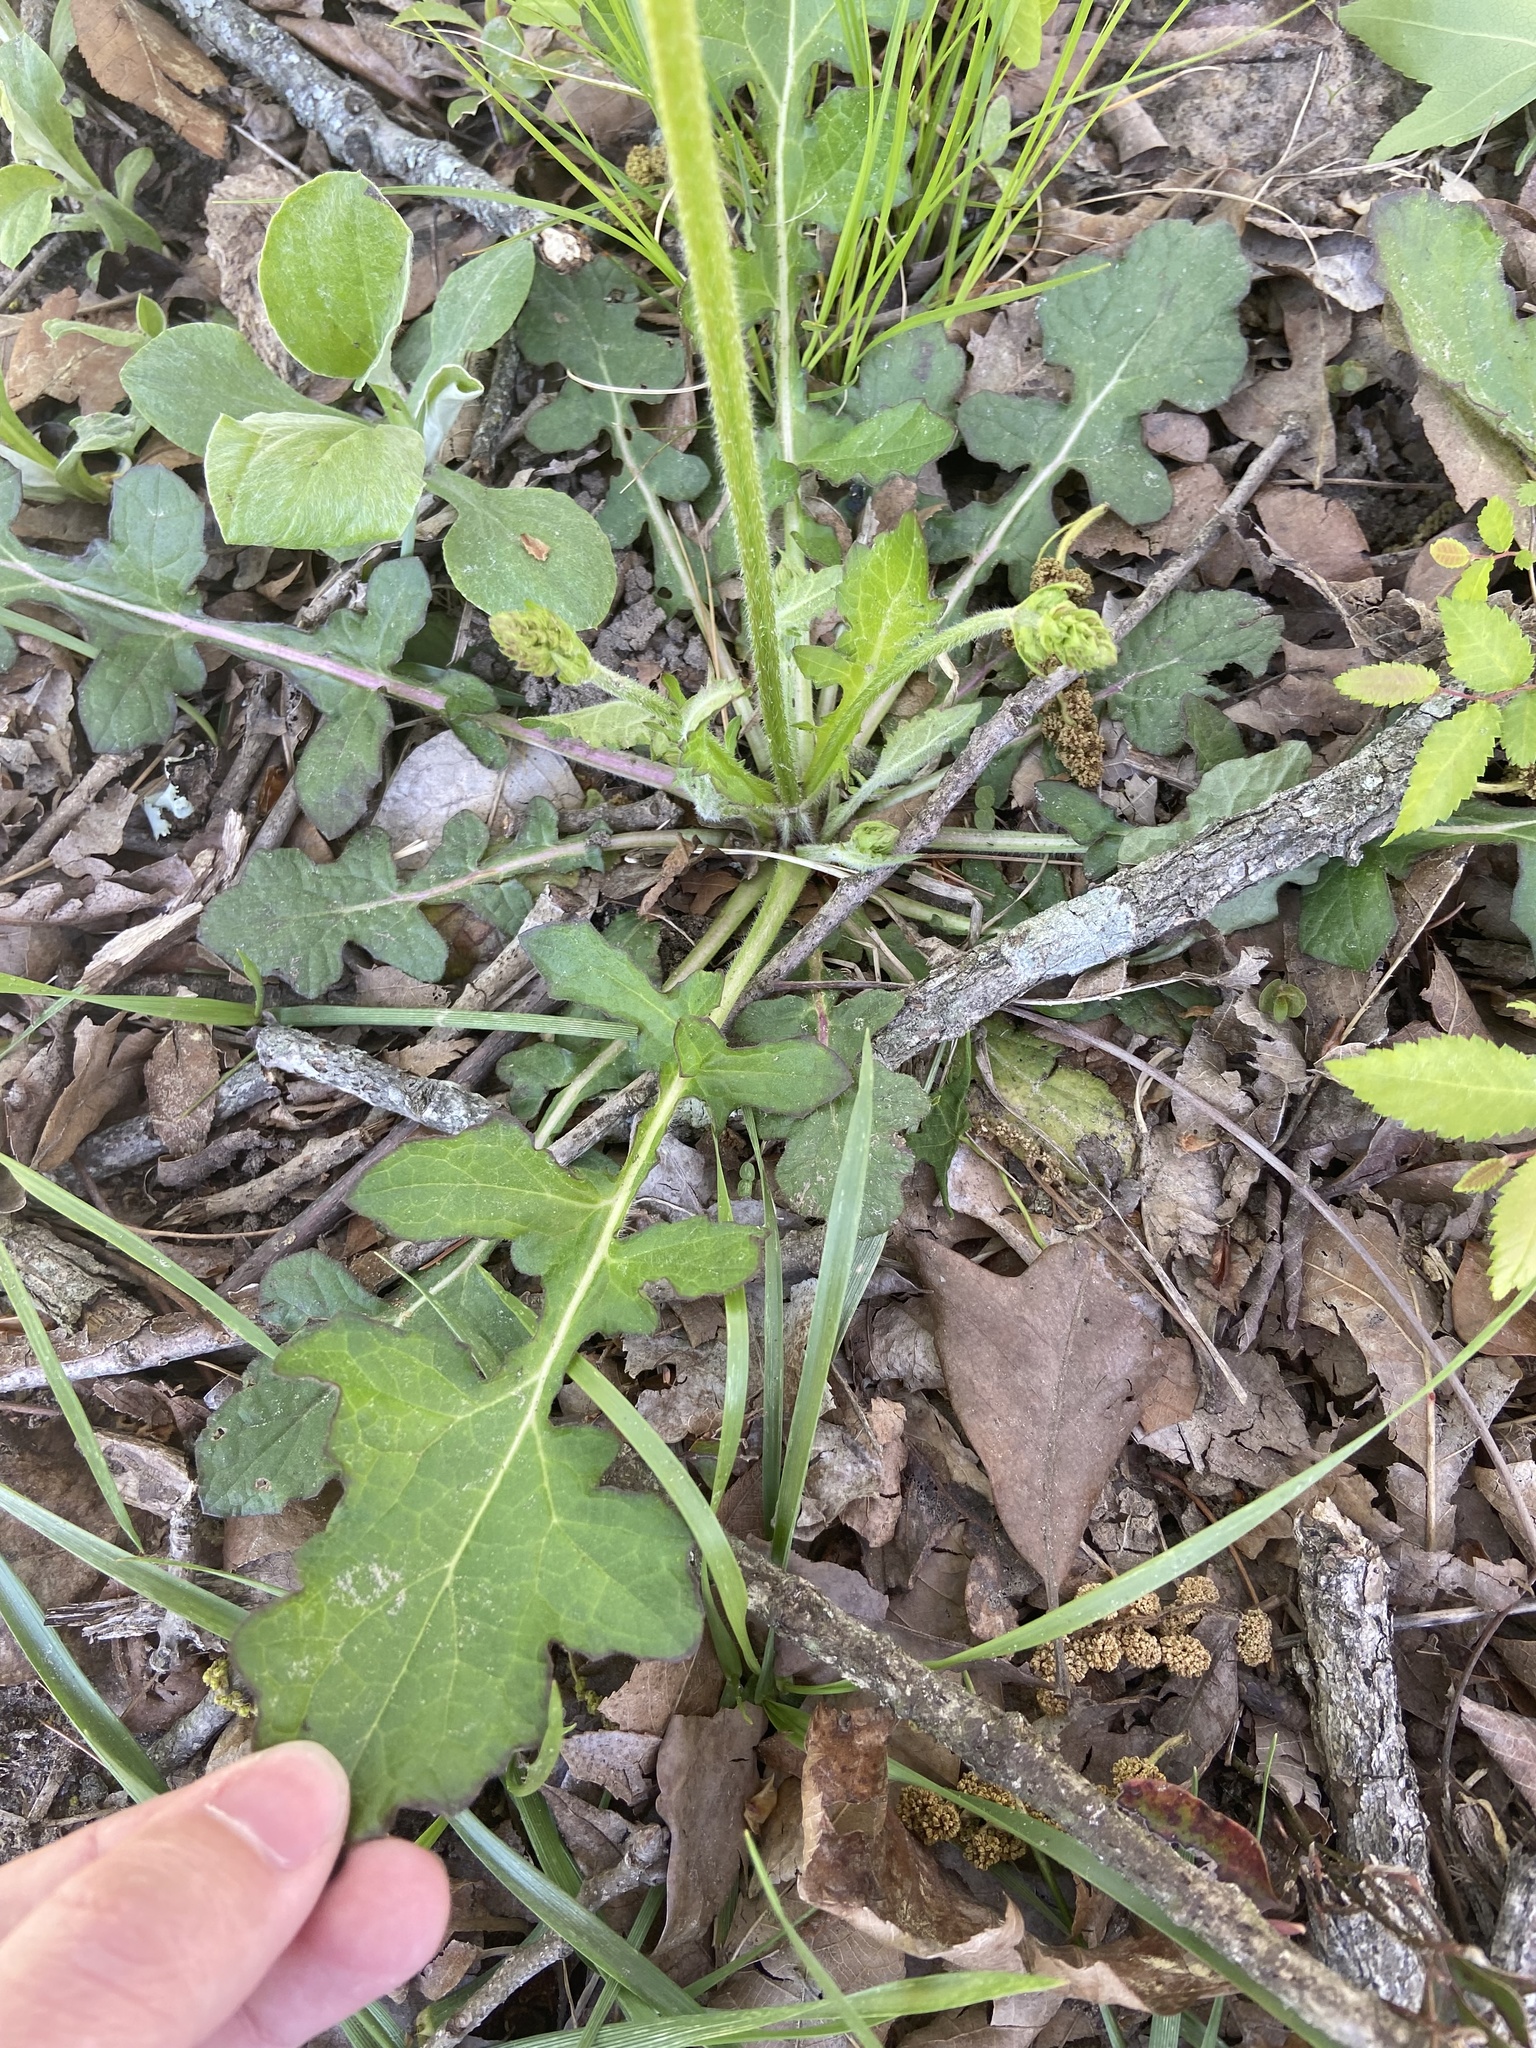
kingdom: Plantae
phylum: Tracheophyta
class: Magnoliopsida
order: Lamiales
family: Lamiaceae
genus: Salvia
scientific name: Salvia lyrata
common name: Cancerweed
